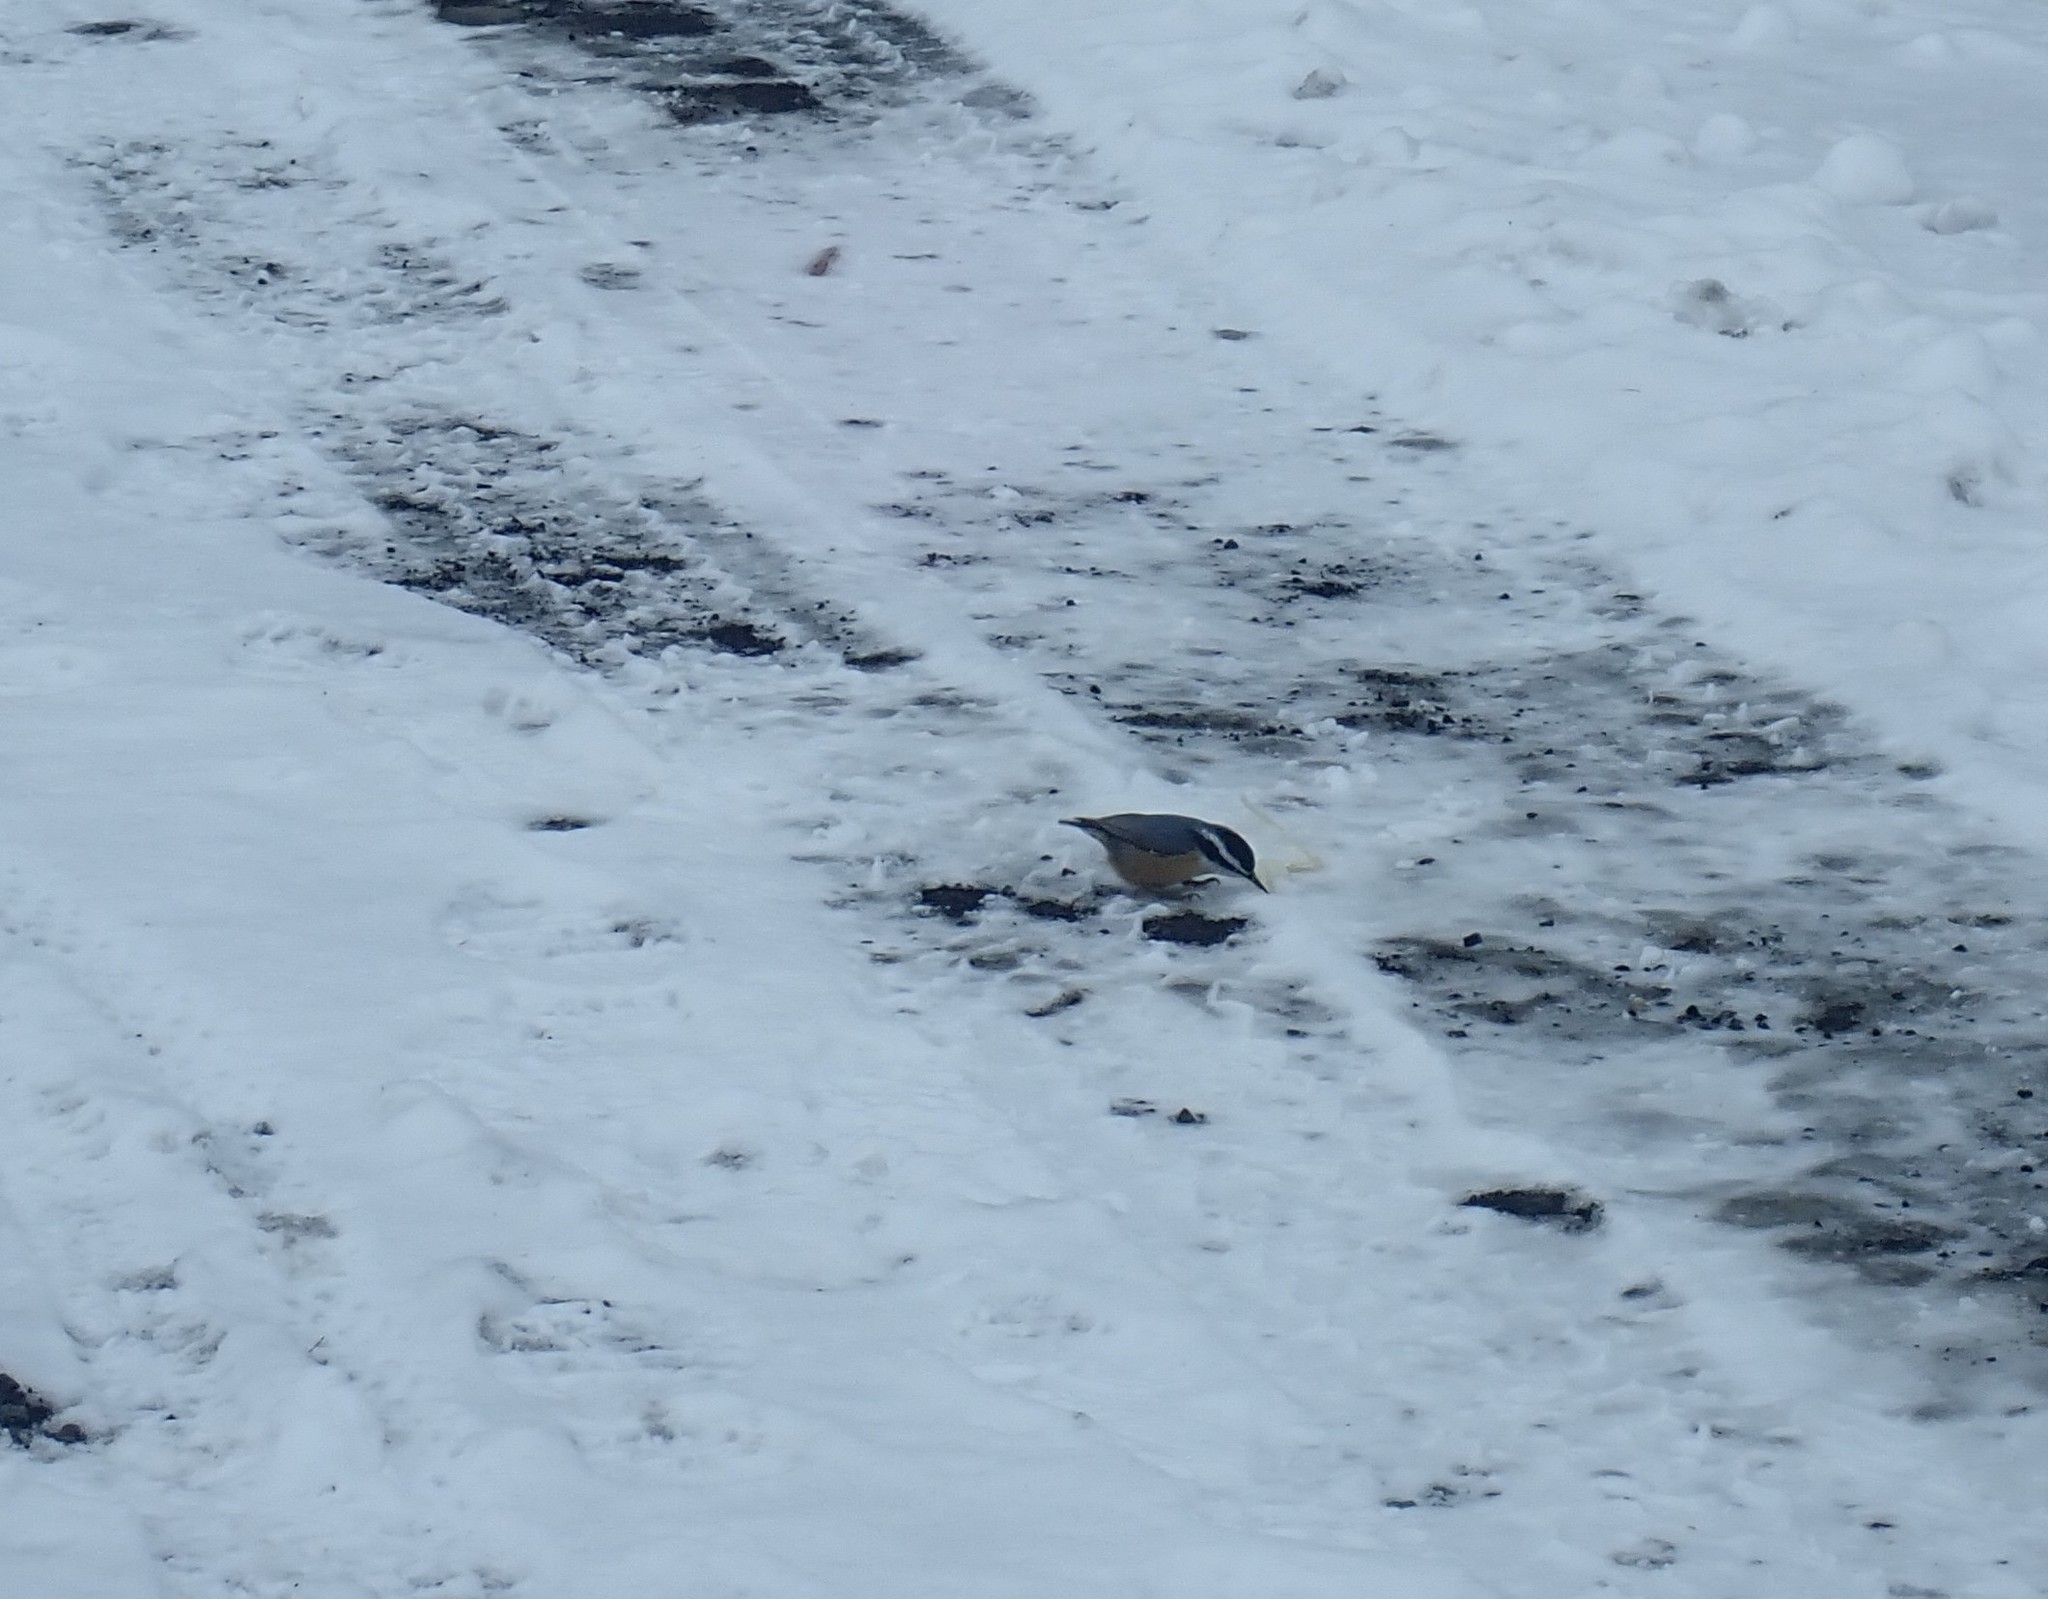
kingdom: Animalia
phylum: Chordata
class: Aves
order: Passeriformes
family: Sittidae
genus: Sitta
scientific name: Sitta canadensis
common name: Red-breasted nuthatch
